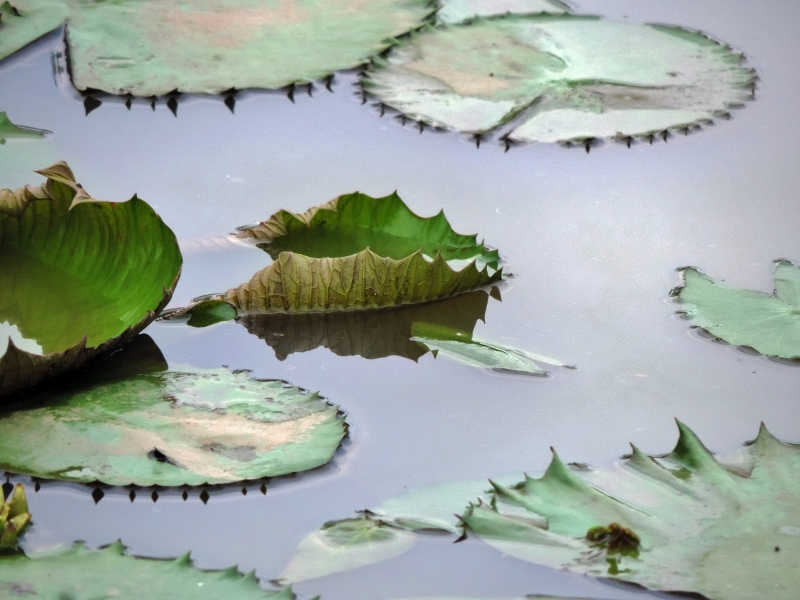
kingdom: Plantae
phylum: Tracheophyta
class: Magnoliopsida
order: Nymphaeales
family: Nymphaeaceae
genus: Nymphaea
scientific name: Nymphaea lotus
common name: White egyptian lotus
